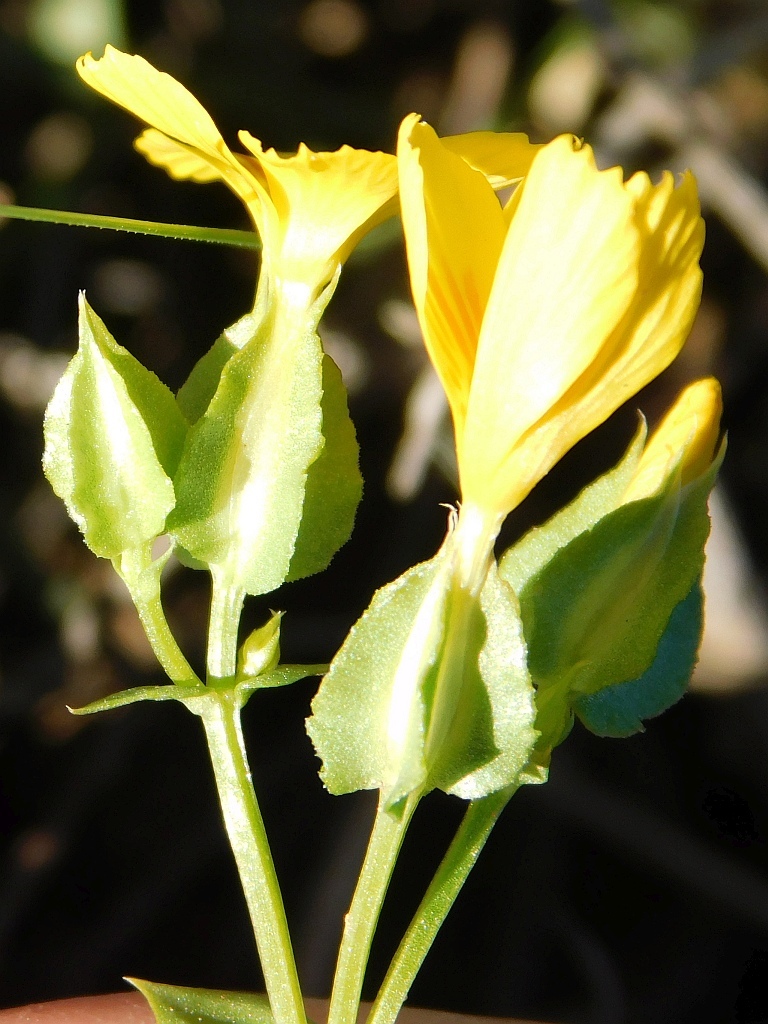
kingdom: Plantae
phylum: Tracheophyta
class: Magnoliopsida
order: Gentianales
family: Gentianaceae
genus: Sebaea
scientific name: Sebaea solaris
